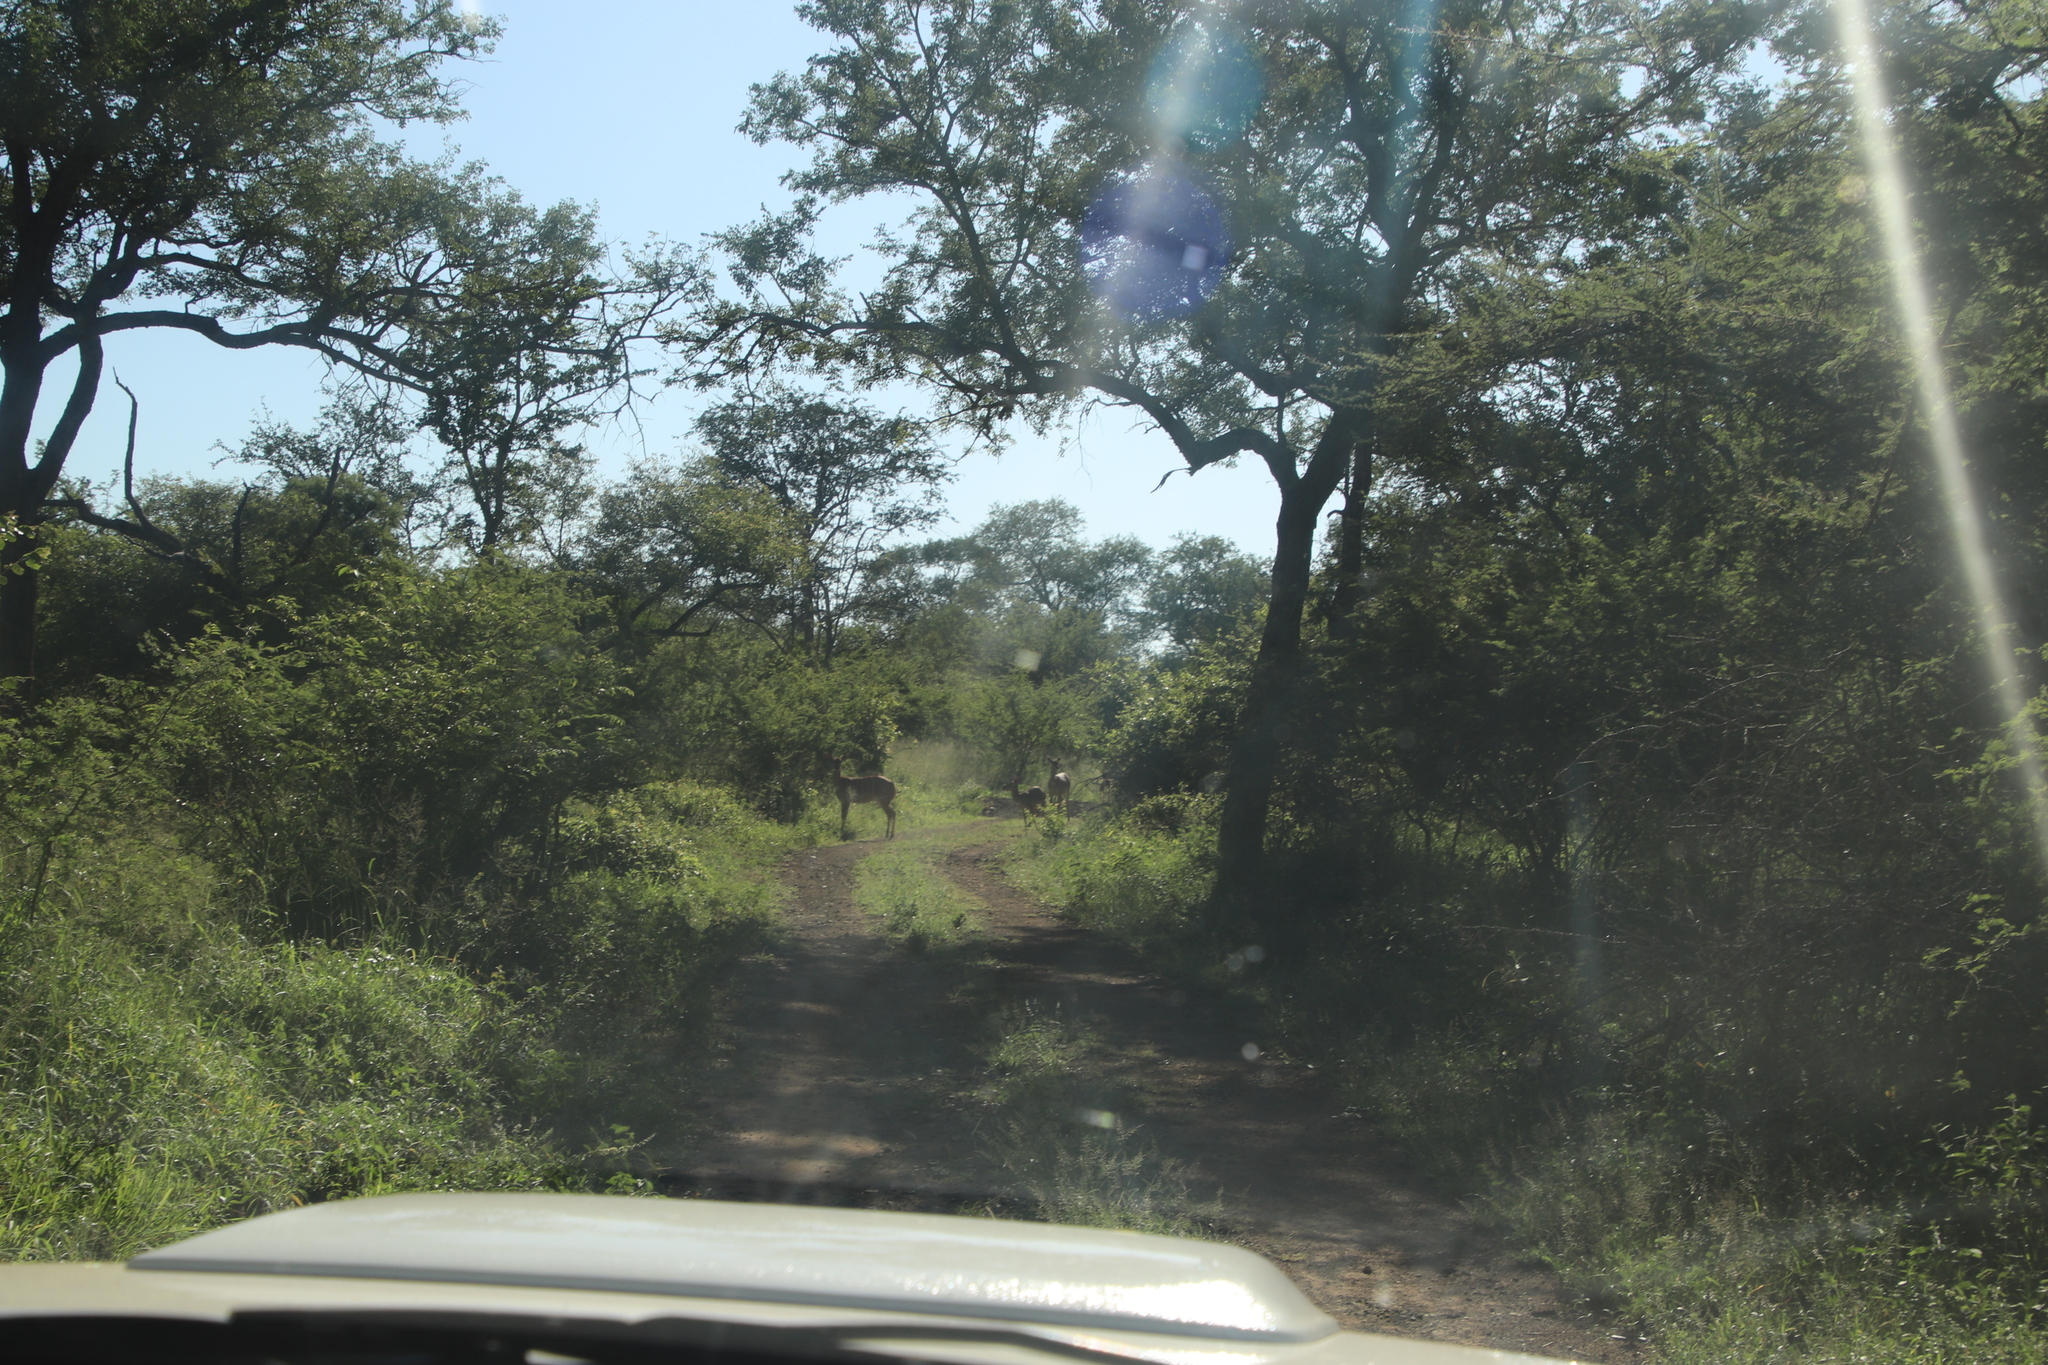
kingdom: Animalia
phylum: Chordata
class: Mammalia
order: Artiodactyla
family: Bovidae
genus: Aepyceros
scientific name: Aepyceros melampus
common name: Impala
